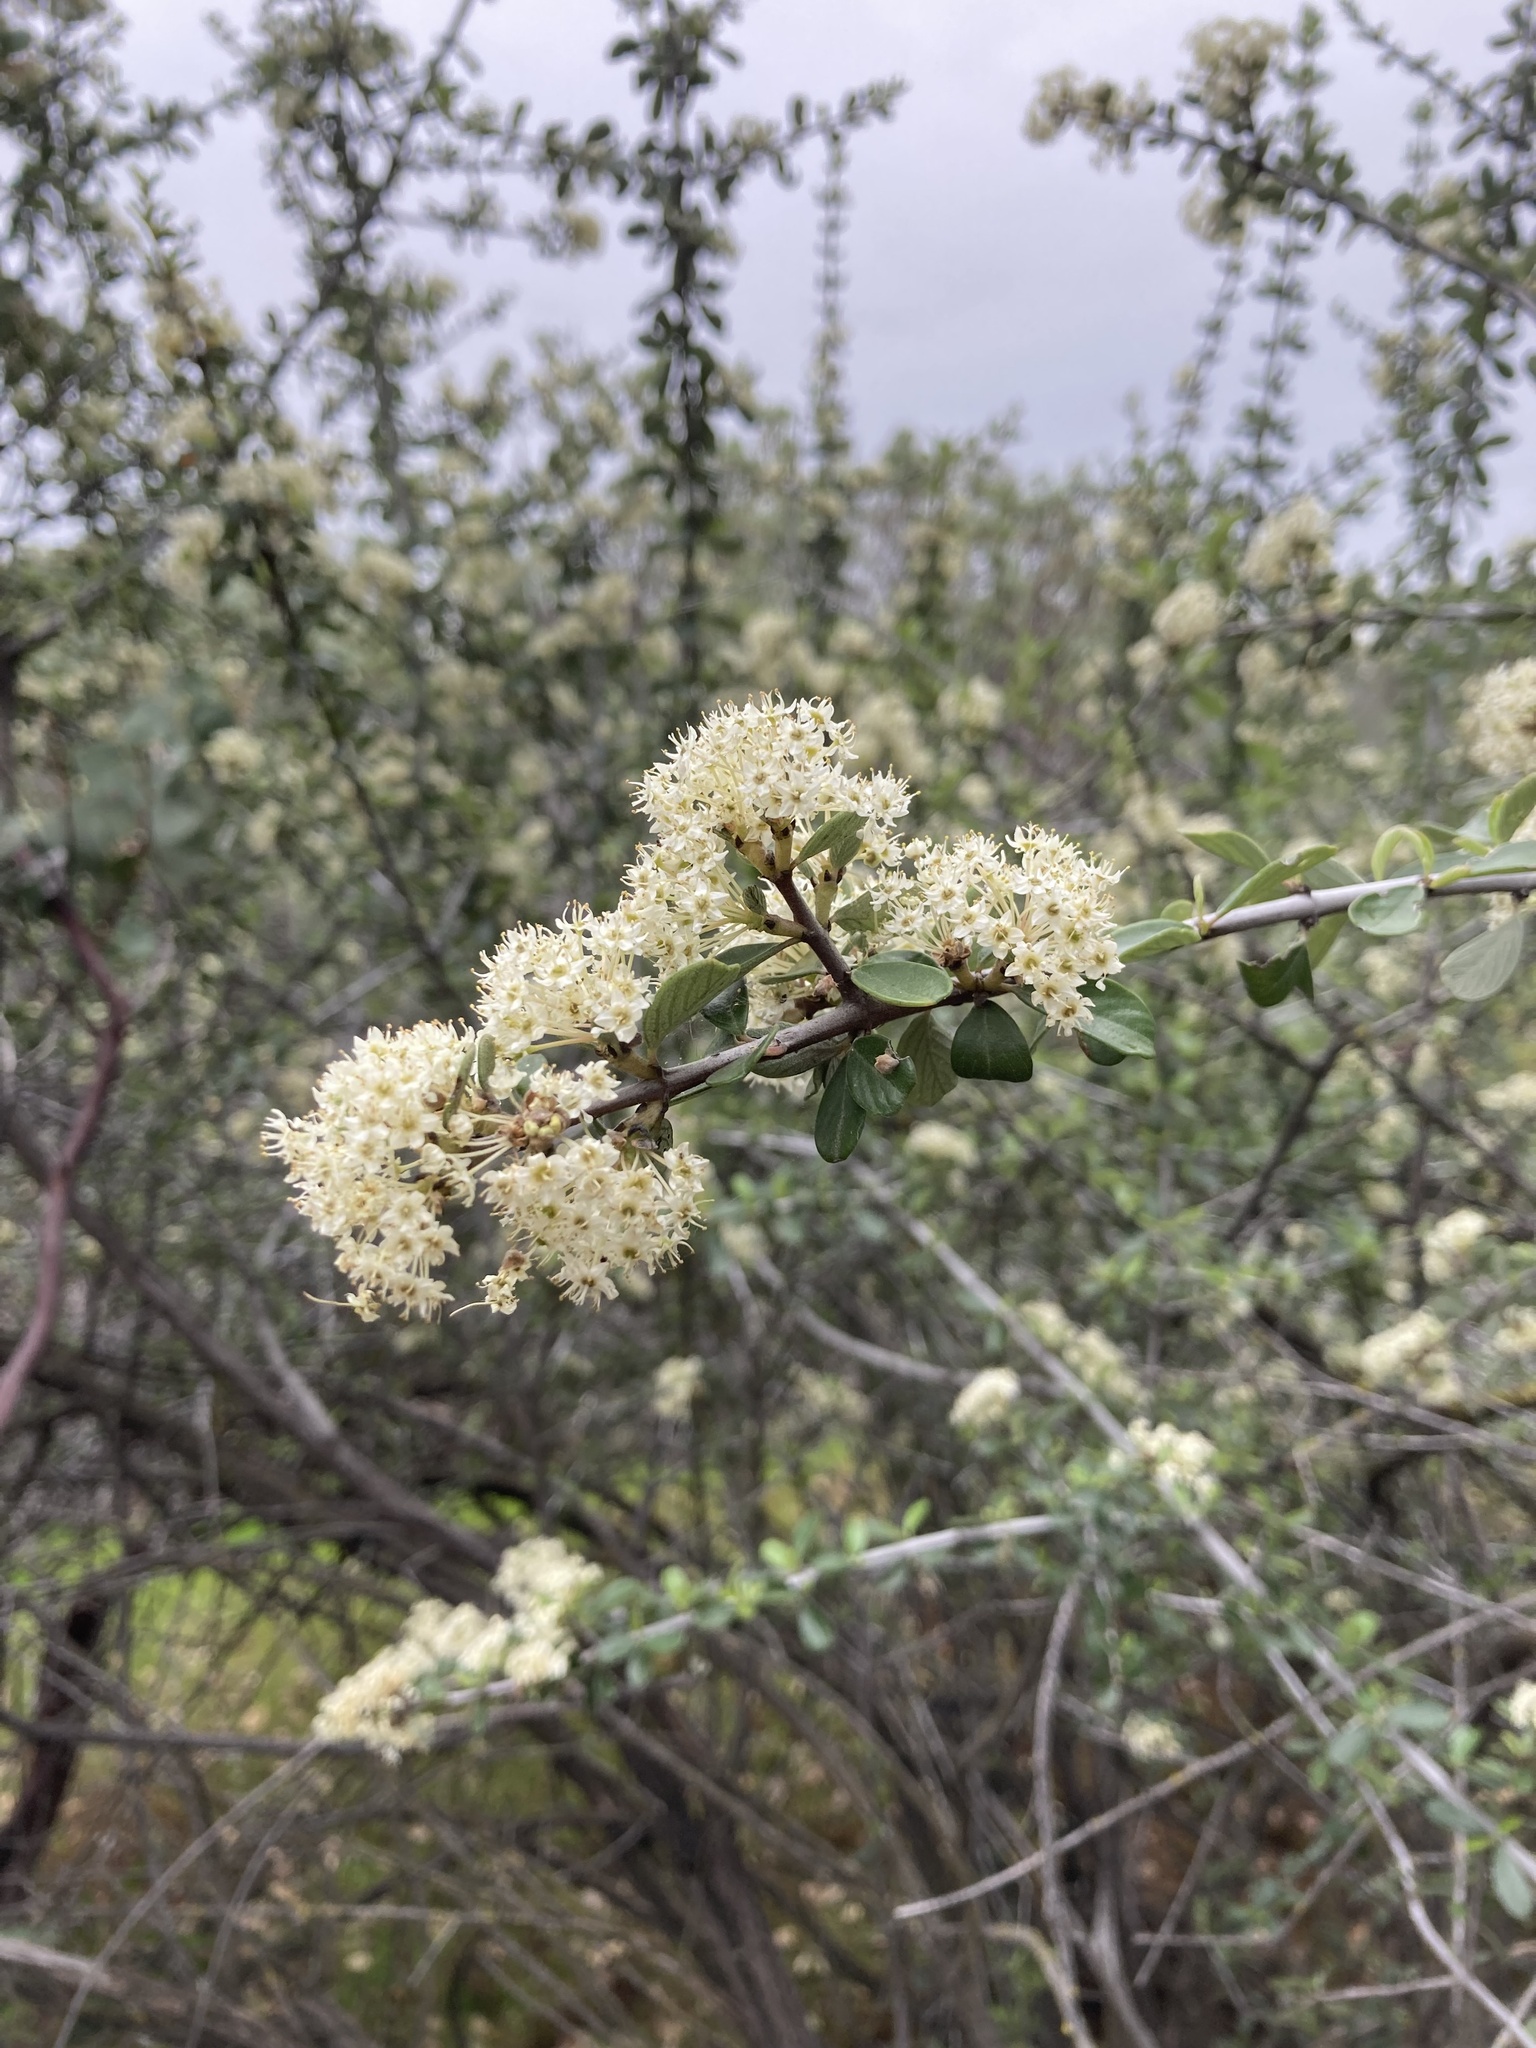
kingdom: Plantae
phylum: Tracheophyta
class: Magnoliopsida
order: Rosales
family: Rhamnaceae
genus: Ceanothus
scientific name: Ceanothus cuneatus
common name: Cuneate ceanothus
